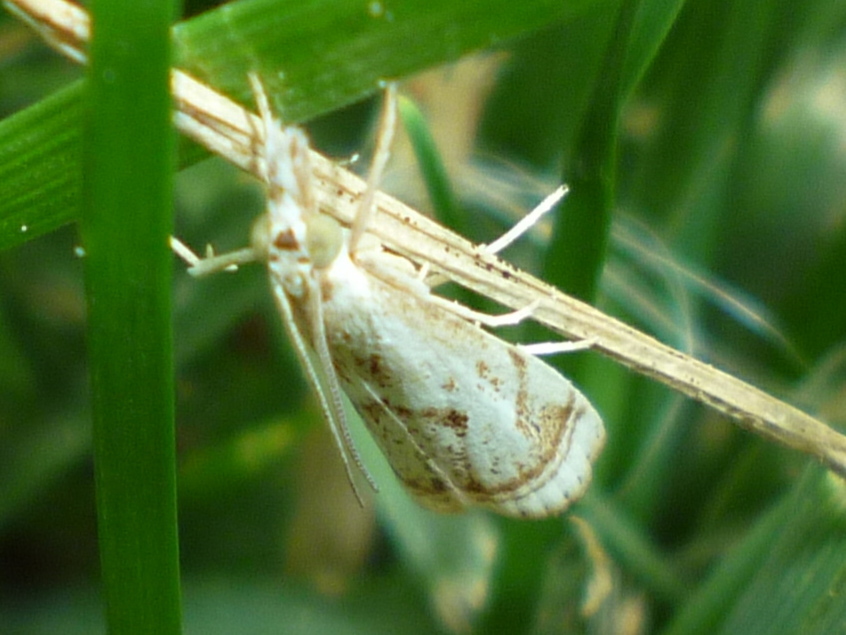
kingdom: Animalia
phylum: Arthropoda
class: Insecta
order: Lepidoptera
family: Crambidae
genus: Microcrambus
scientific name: Microcrambus elegans
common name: Elegant grass-veneer
